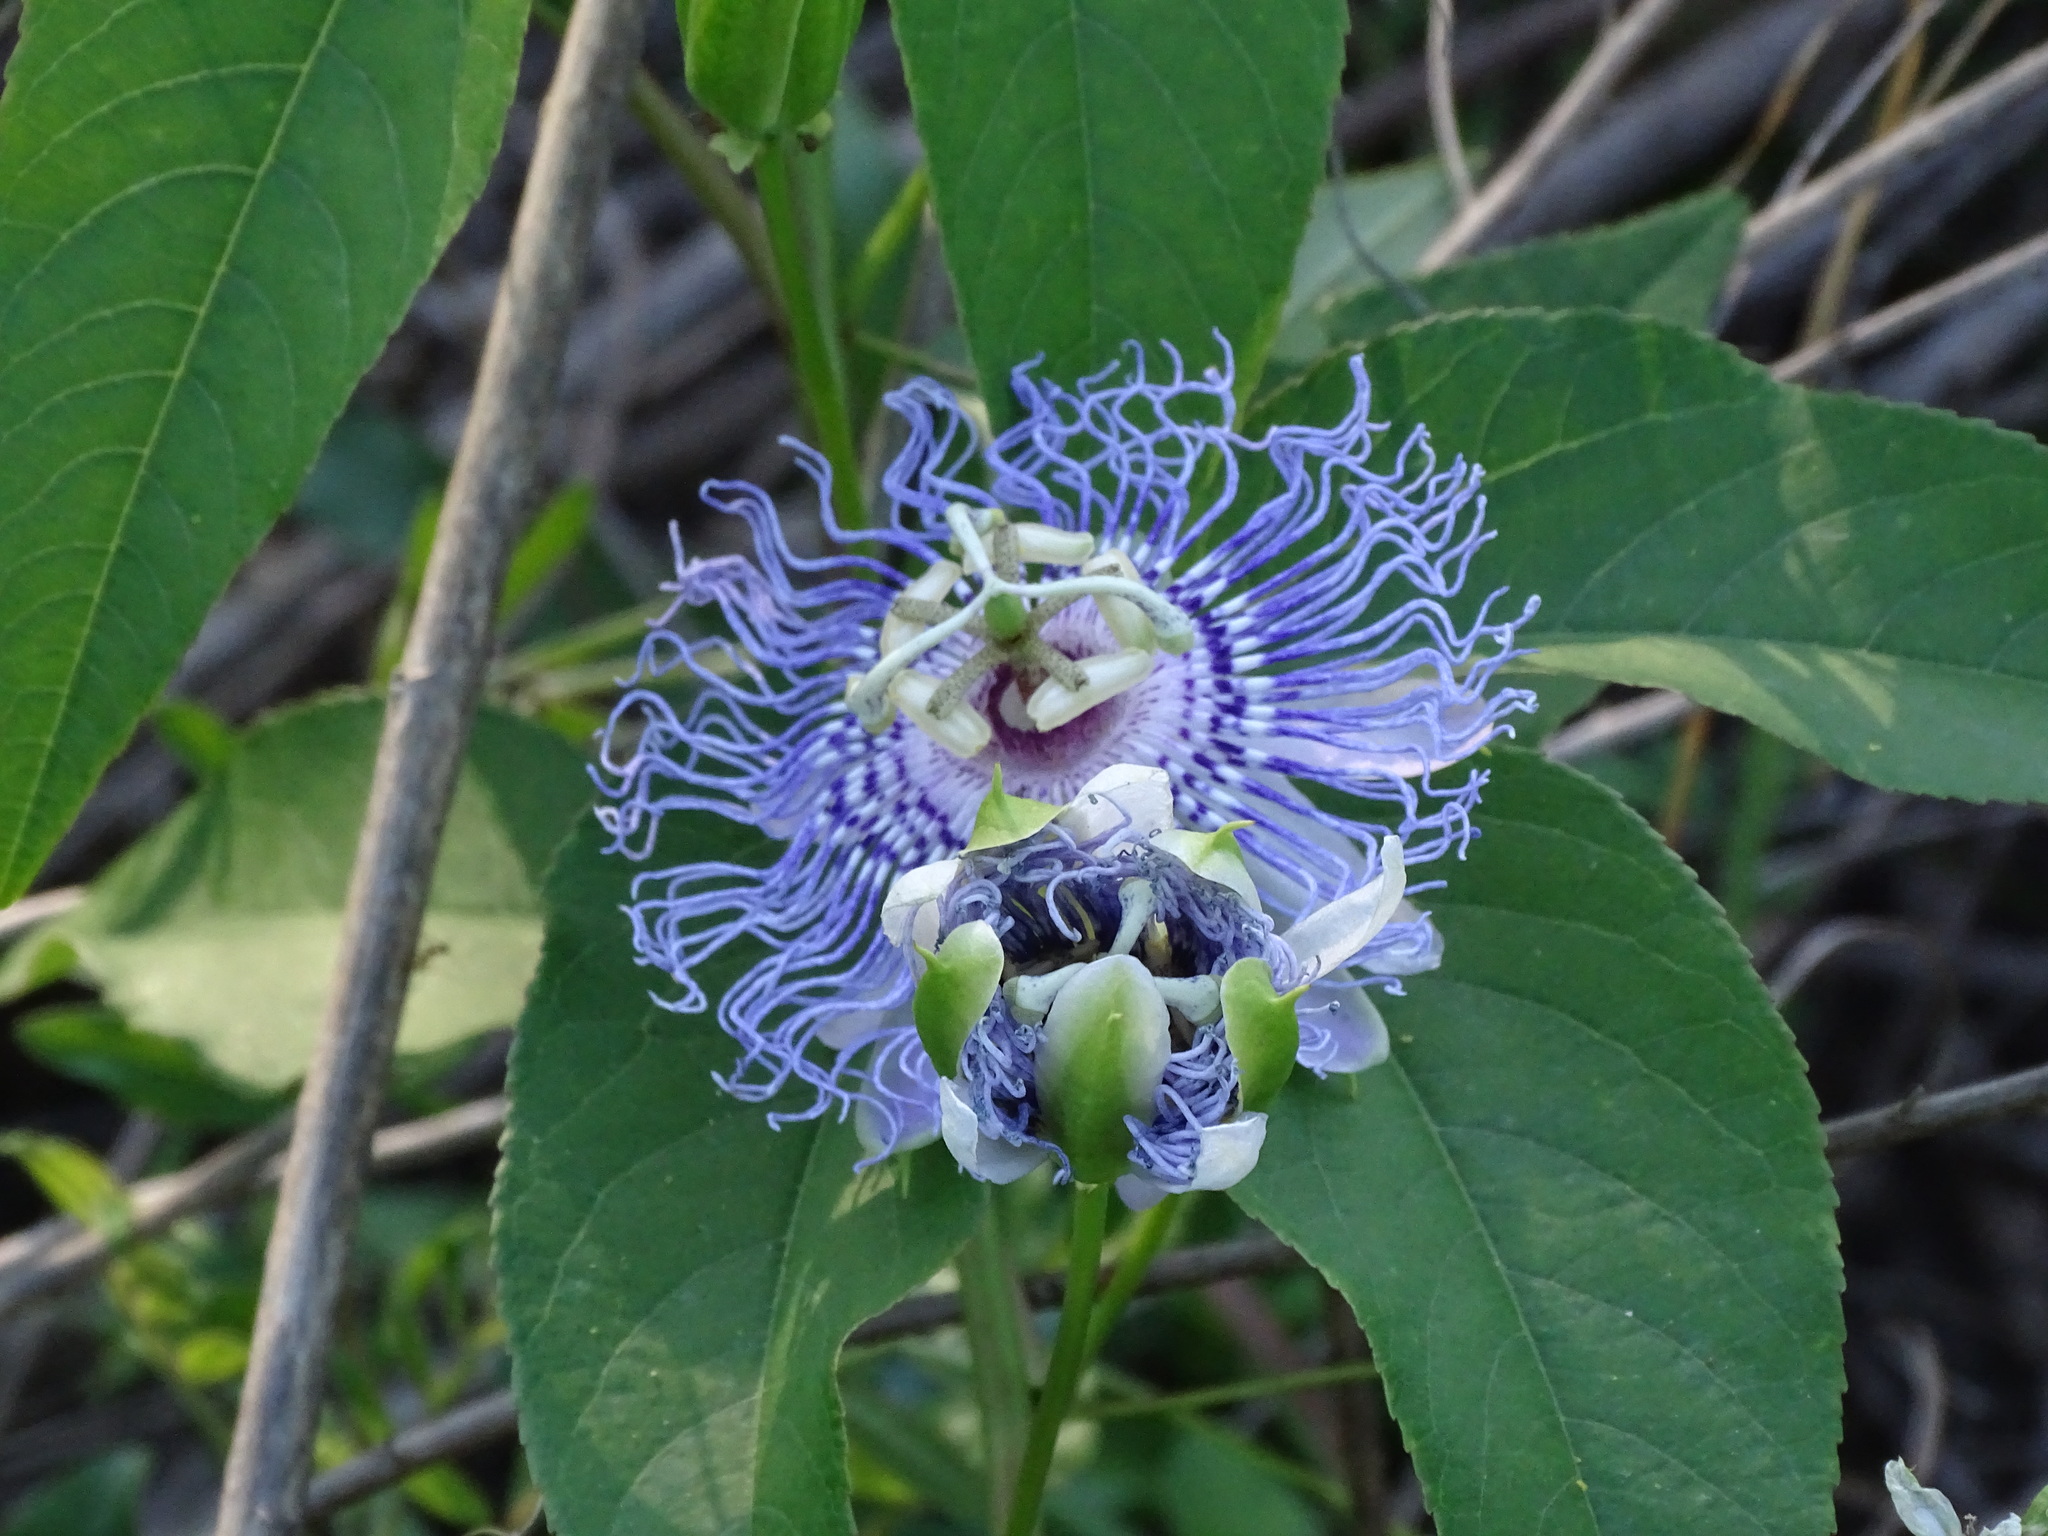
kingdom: Plantae
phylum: Tracheophyta
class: Magnoliopsida
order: Malpighiales
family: Passifloraceae
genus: Passiflora
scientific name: Passiflora incarnata
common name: Apricot-vine
